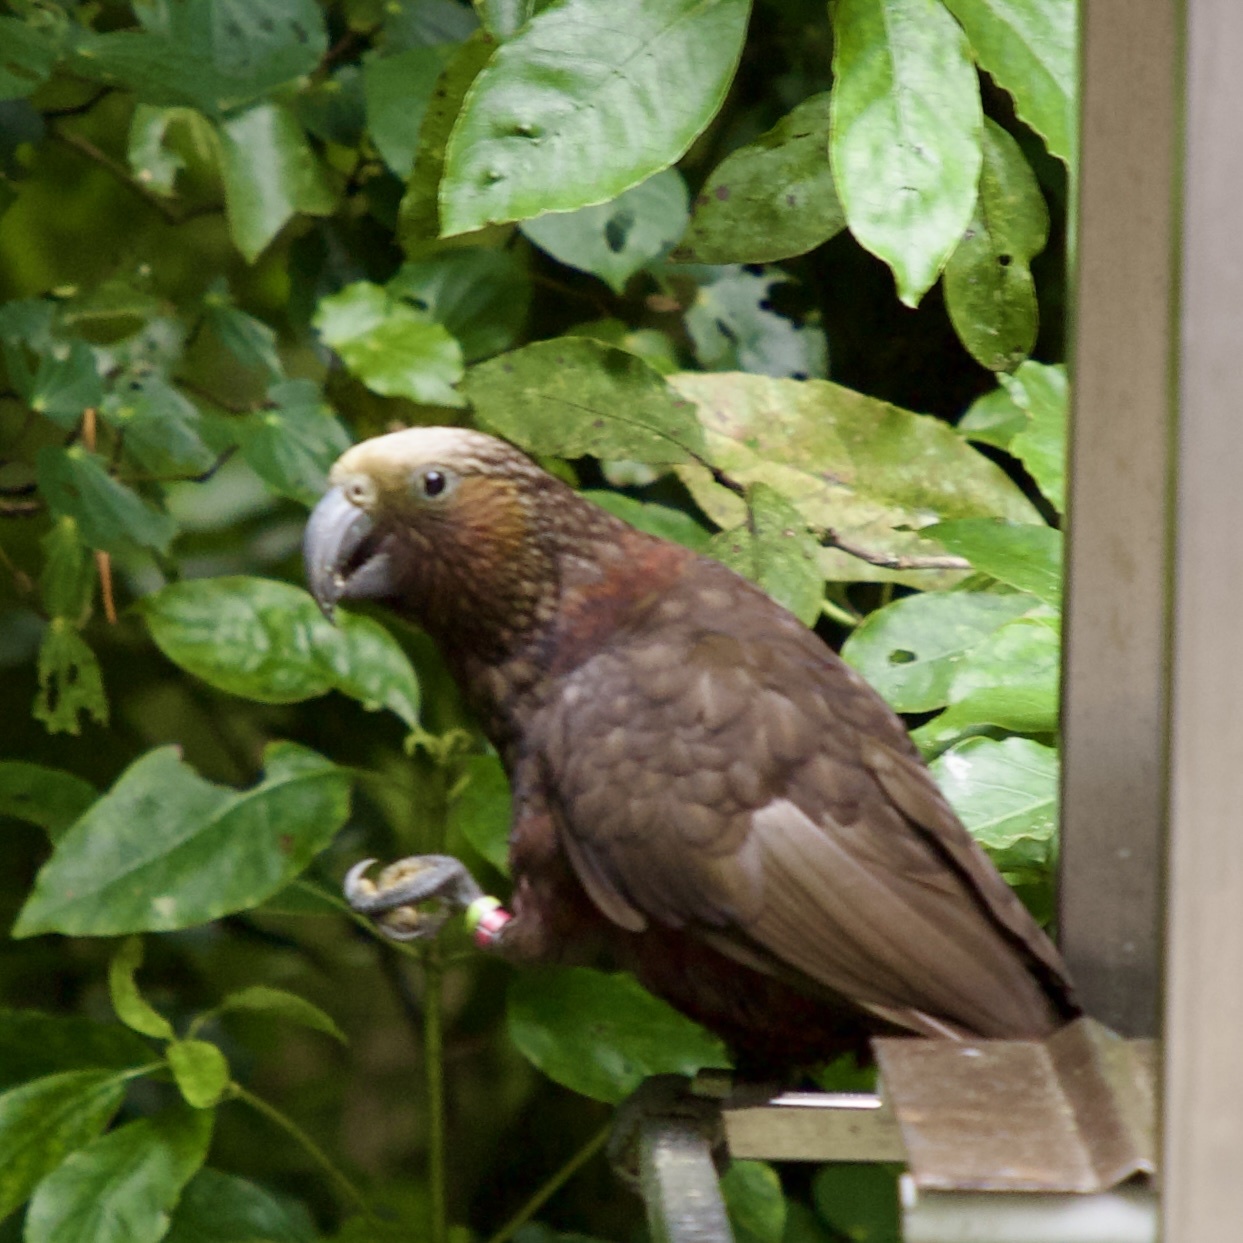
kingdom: Animalia
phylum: Chordata
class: Aves
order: Psittaciformes
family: Psittacidae
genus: Nestor
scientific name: Nestor meridionalis
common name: New zealand kaka
